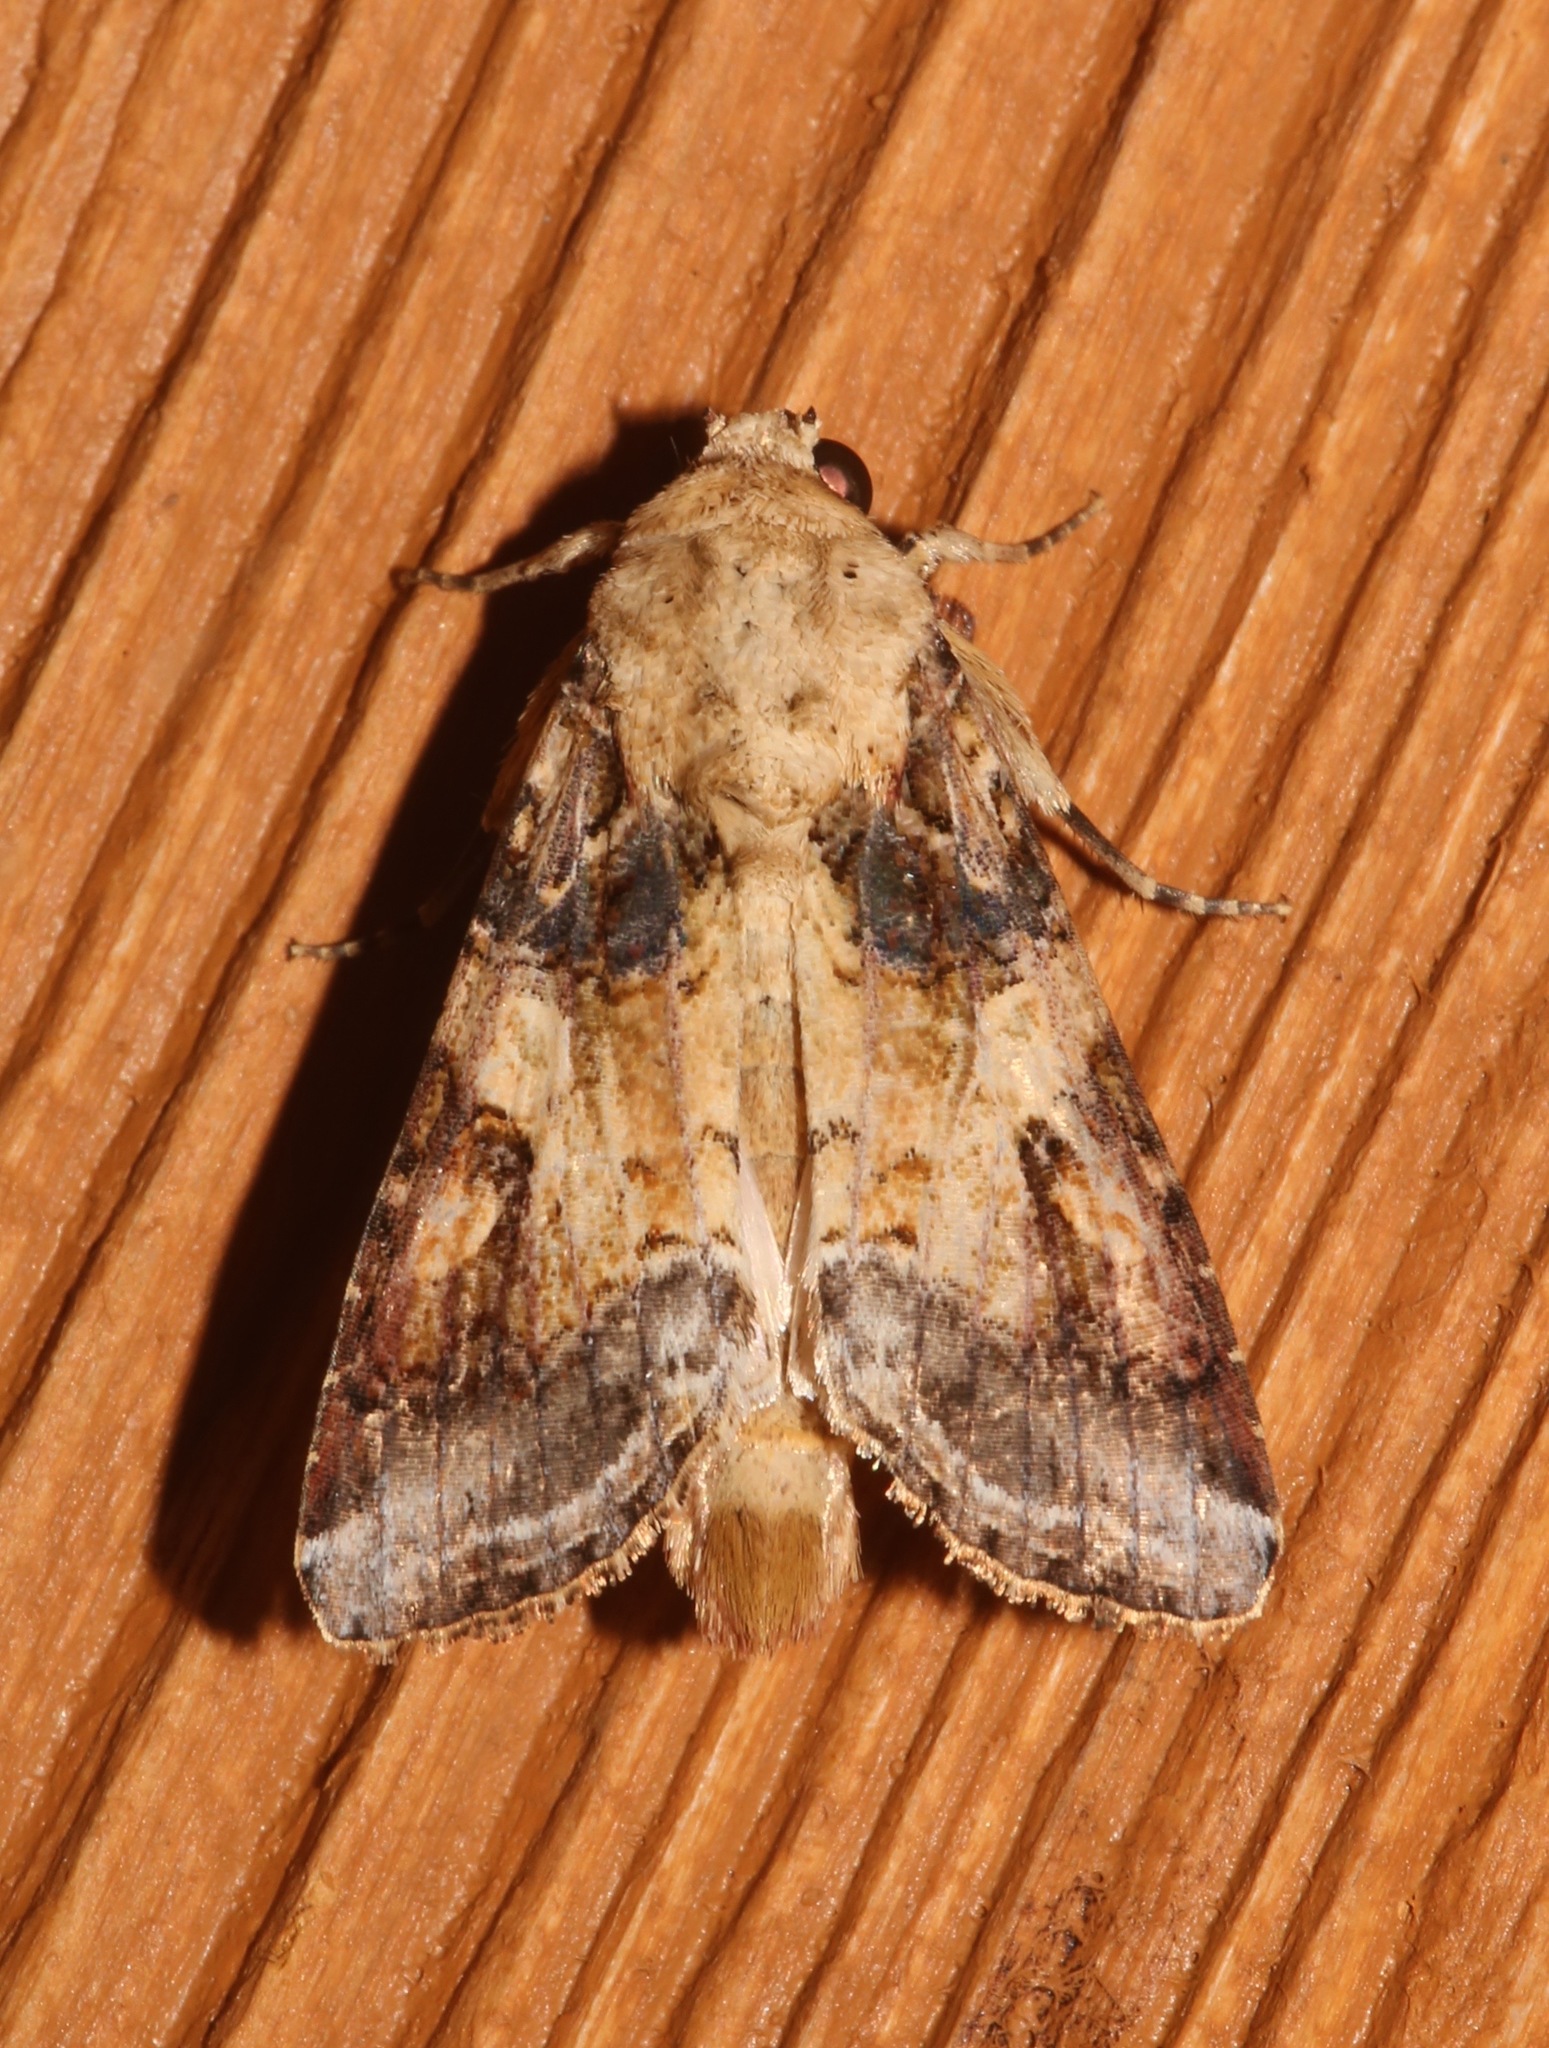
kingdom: Animalia
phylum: Arthropoda
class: Insecta
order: Lepidoptera
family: Noctuidae
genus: Spodoptera
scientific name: Spodoptera latifascia
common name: Velvet armyworm moth
